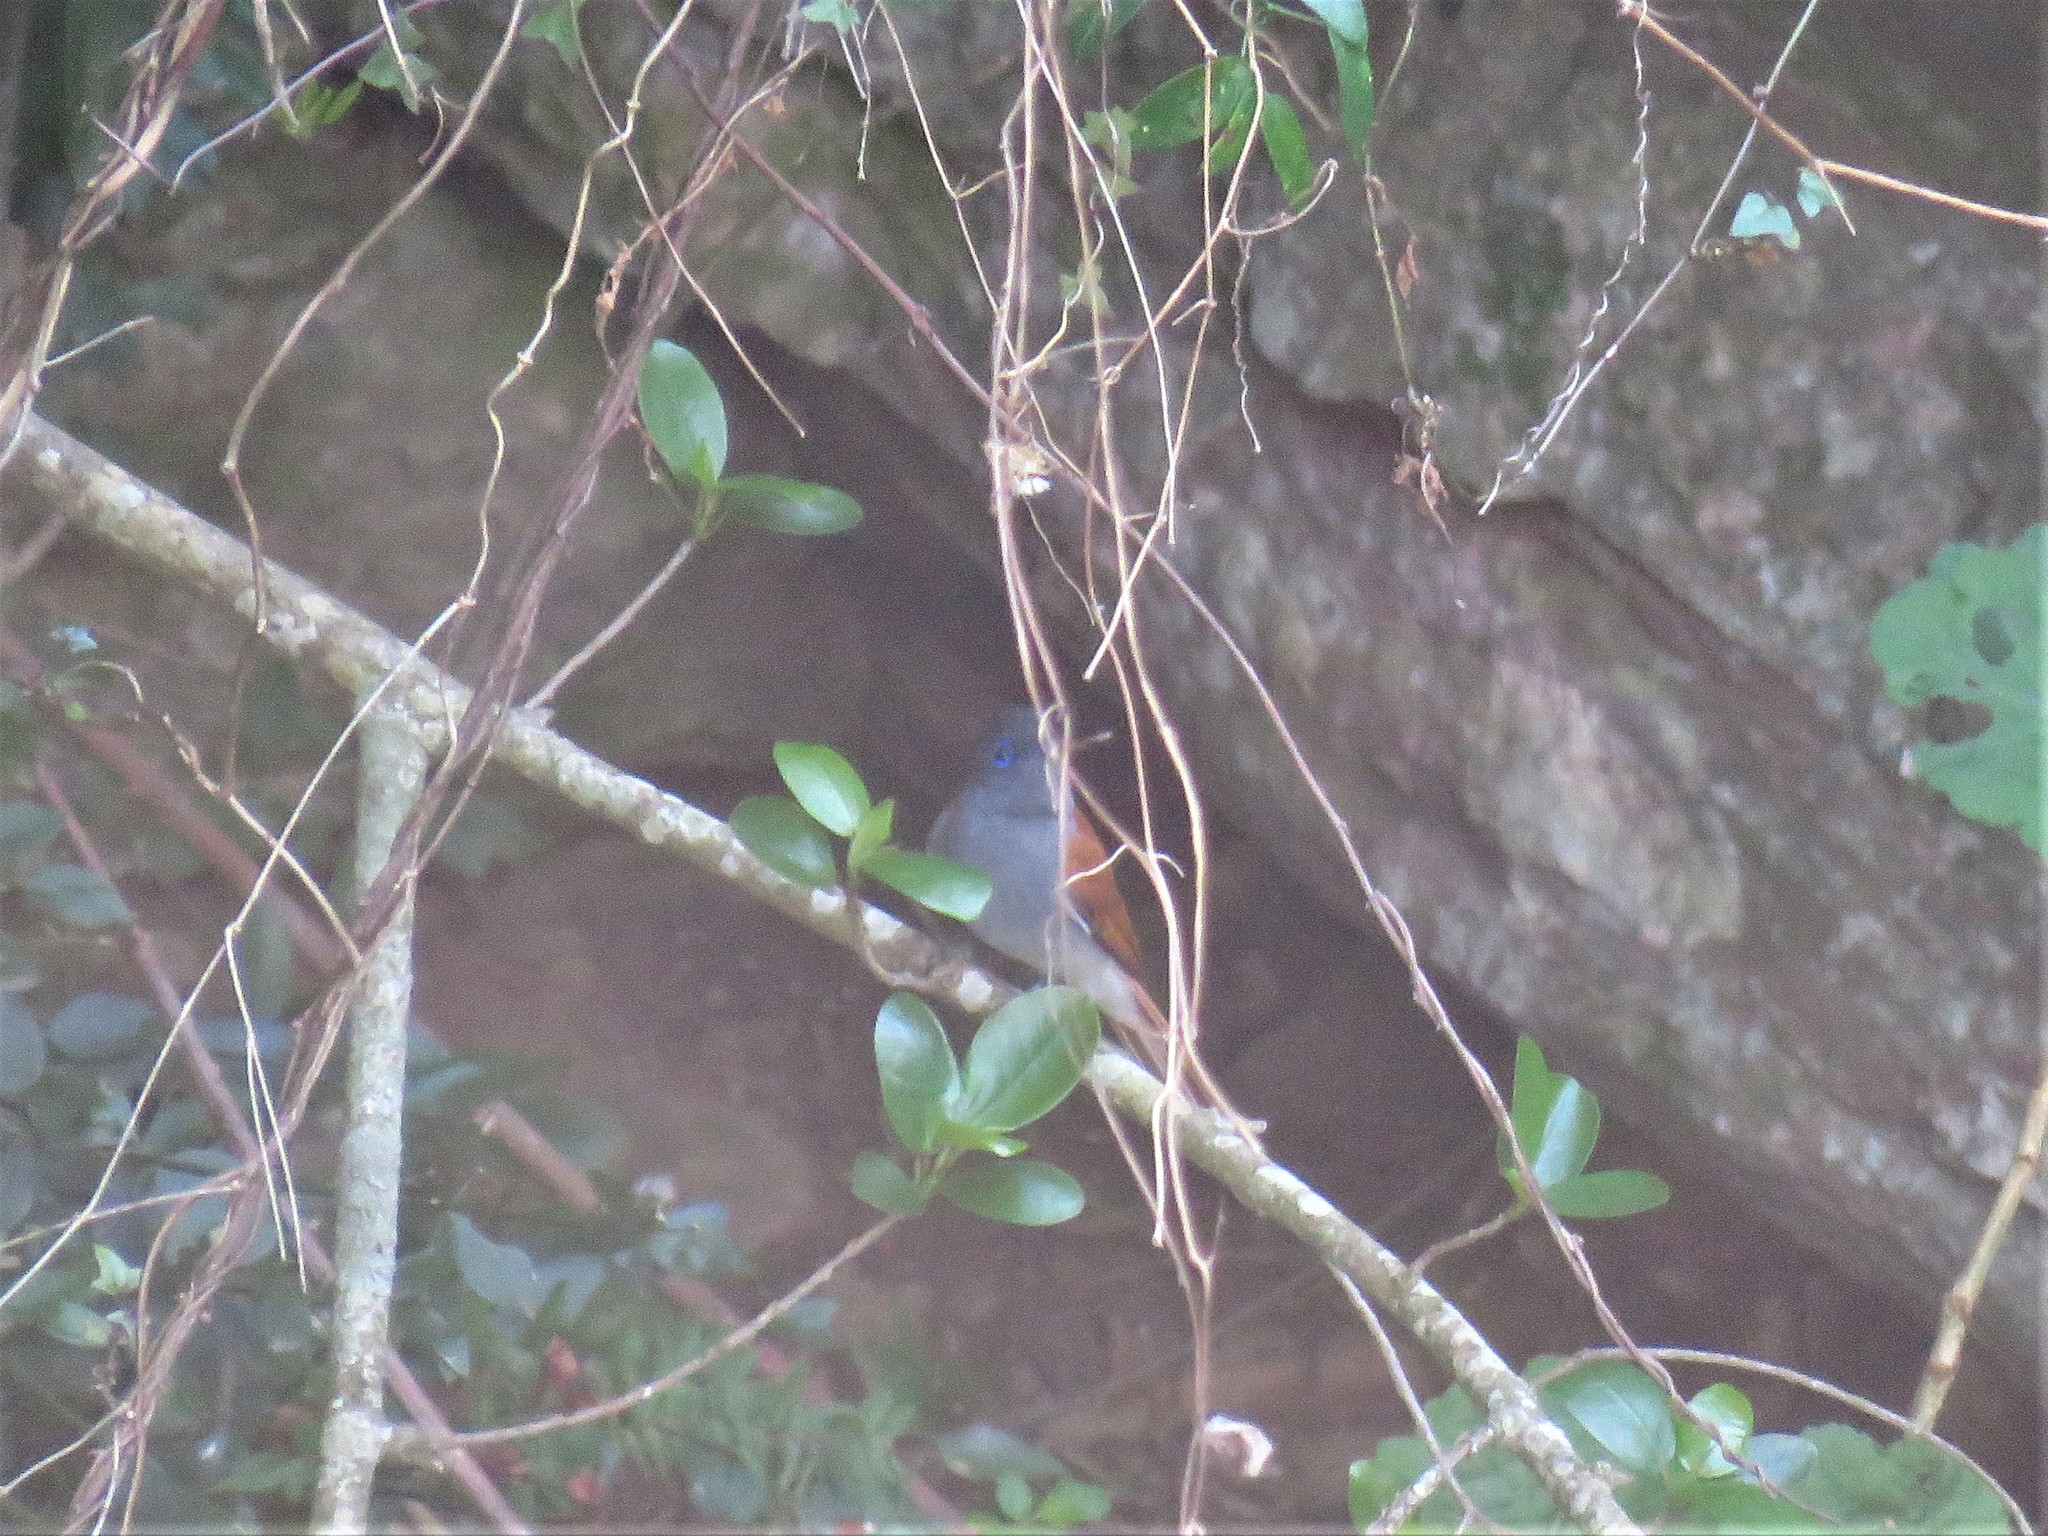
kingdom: Animalia
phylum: Chordata
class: Aves
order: Passeriformes
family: Monarchidae
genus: Terpsiphone
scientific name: Terpsiphone viridis
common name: African paradise flycatcher
